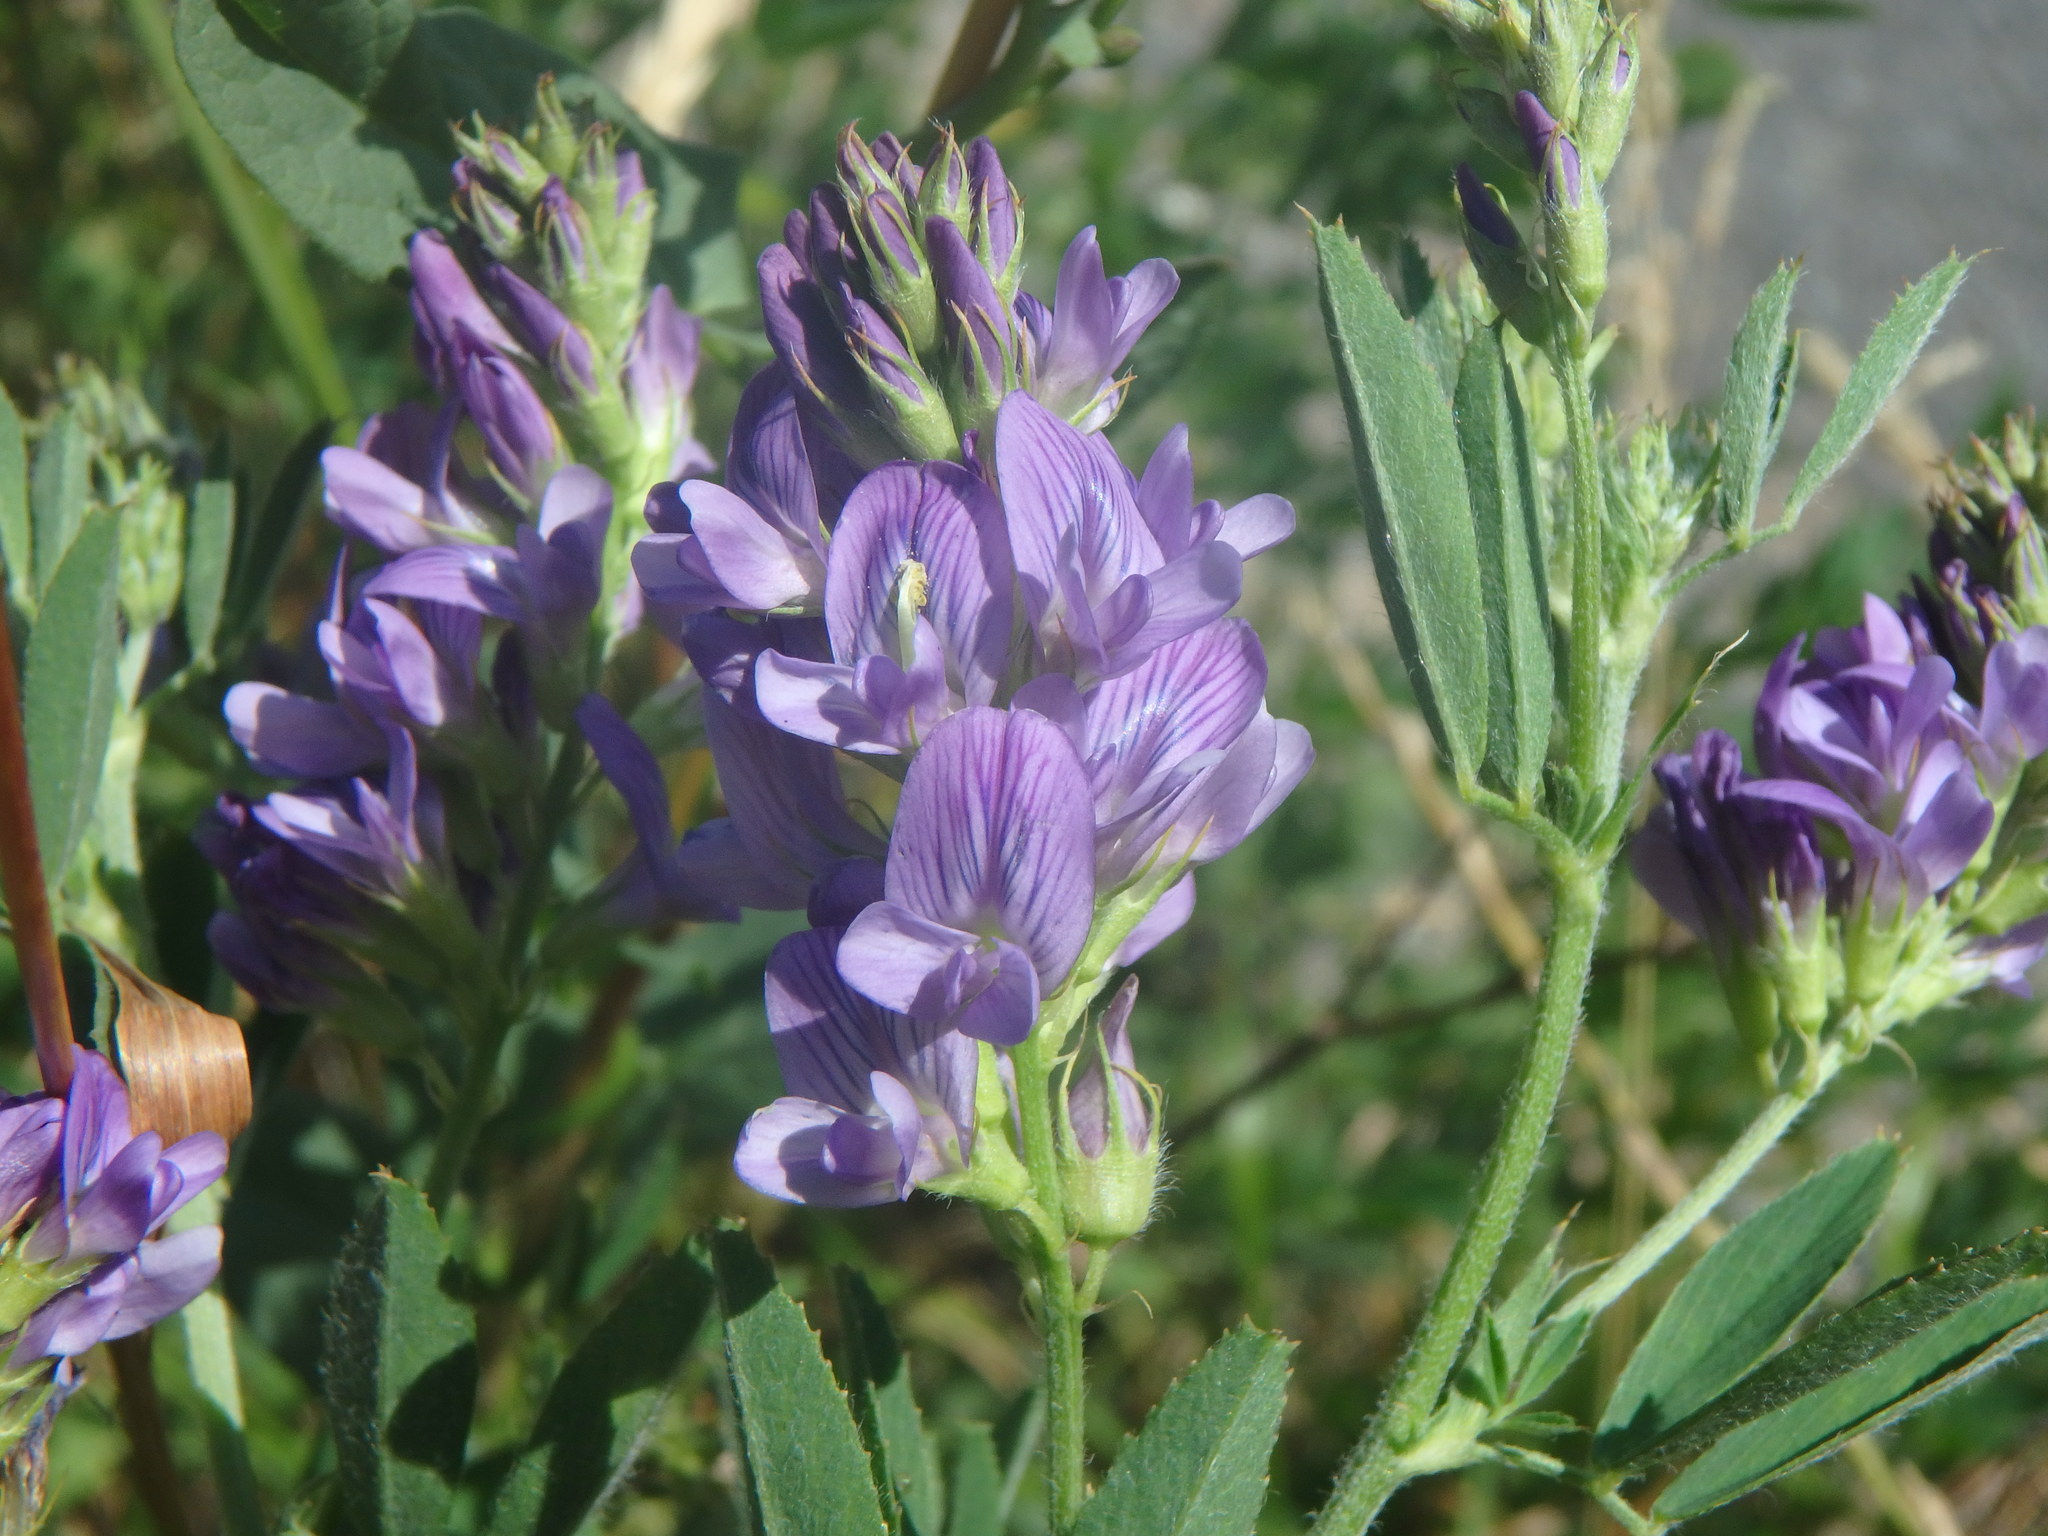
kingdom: Plantae
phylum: Tracheophyta
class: Magnoliopsida
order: Fabales
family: Fabaceae
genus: Medicago
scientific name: Medicago sativa
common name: Alfalfa
